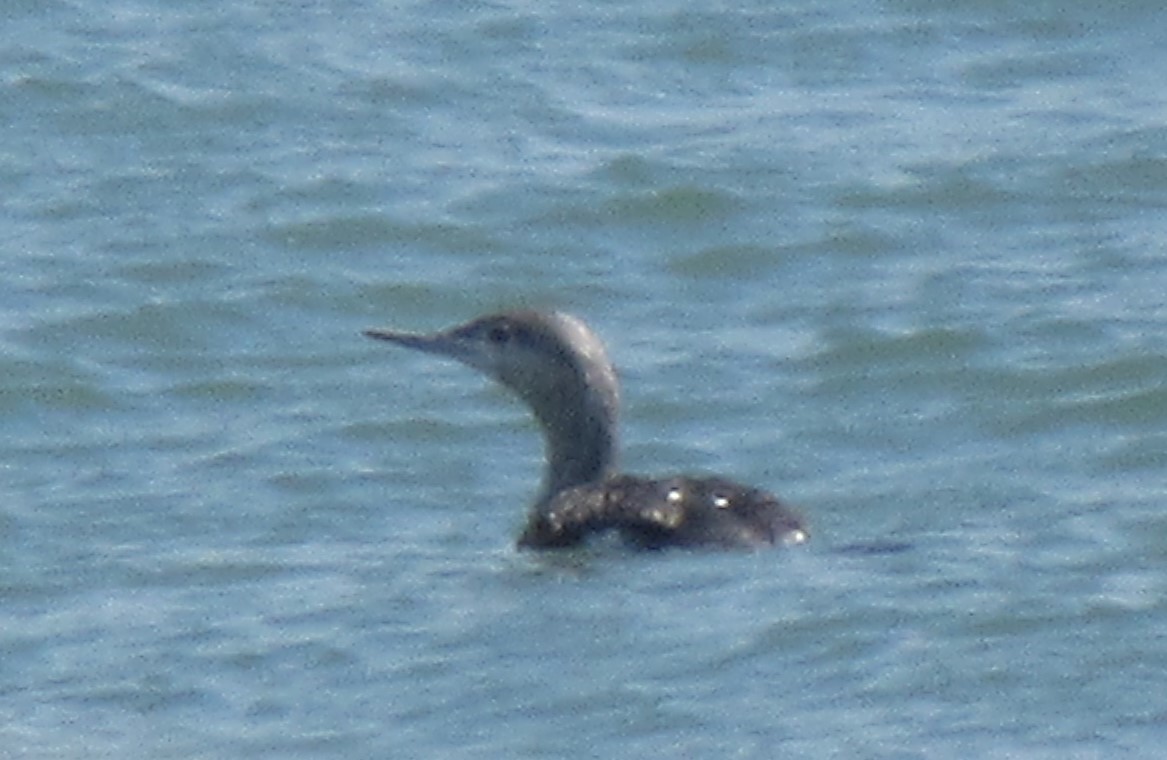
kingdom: Animalia
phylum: Chordata
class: Aves
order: Gaviiformes
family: Gaviidae
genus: Gavia
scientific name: Gavia stellata
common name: Red-throated loon
